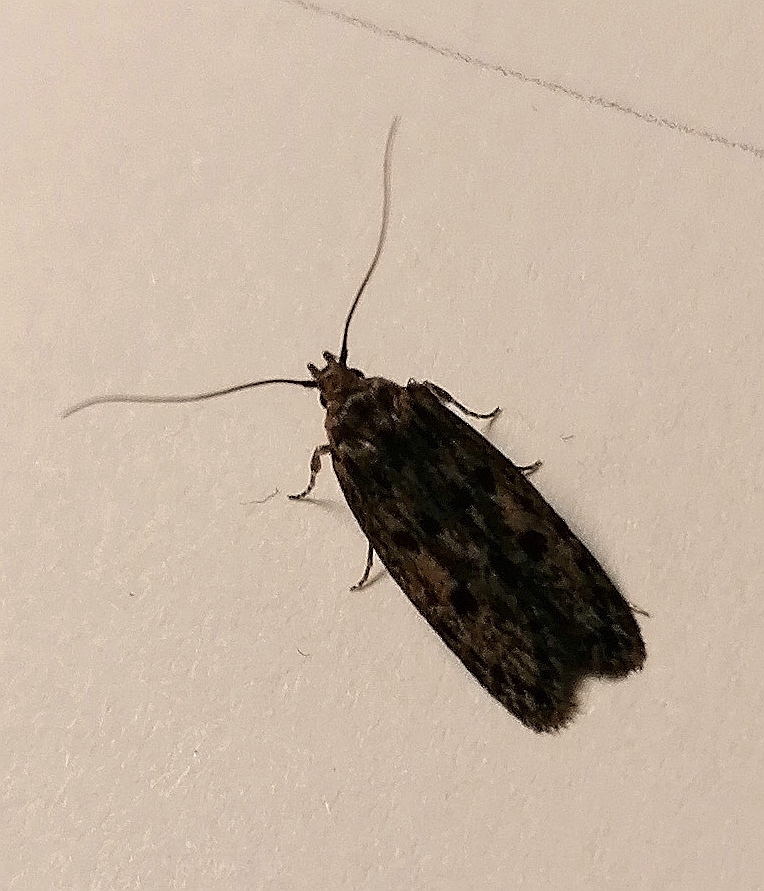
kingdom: Animalia
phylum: Arthropoda
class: Insecta
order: Lepidoptera
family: Oecophoridae
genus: Hofmannophila
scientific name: Hofmannophila pseudospretella
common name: Brown house moth
